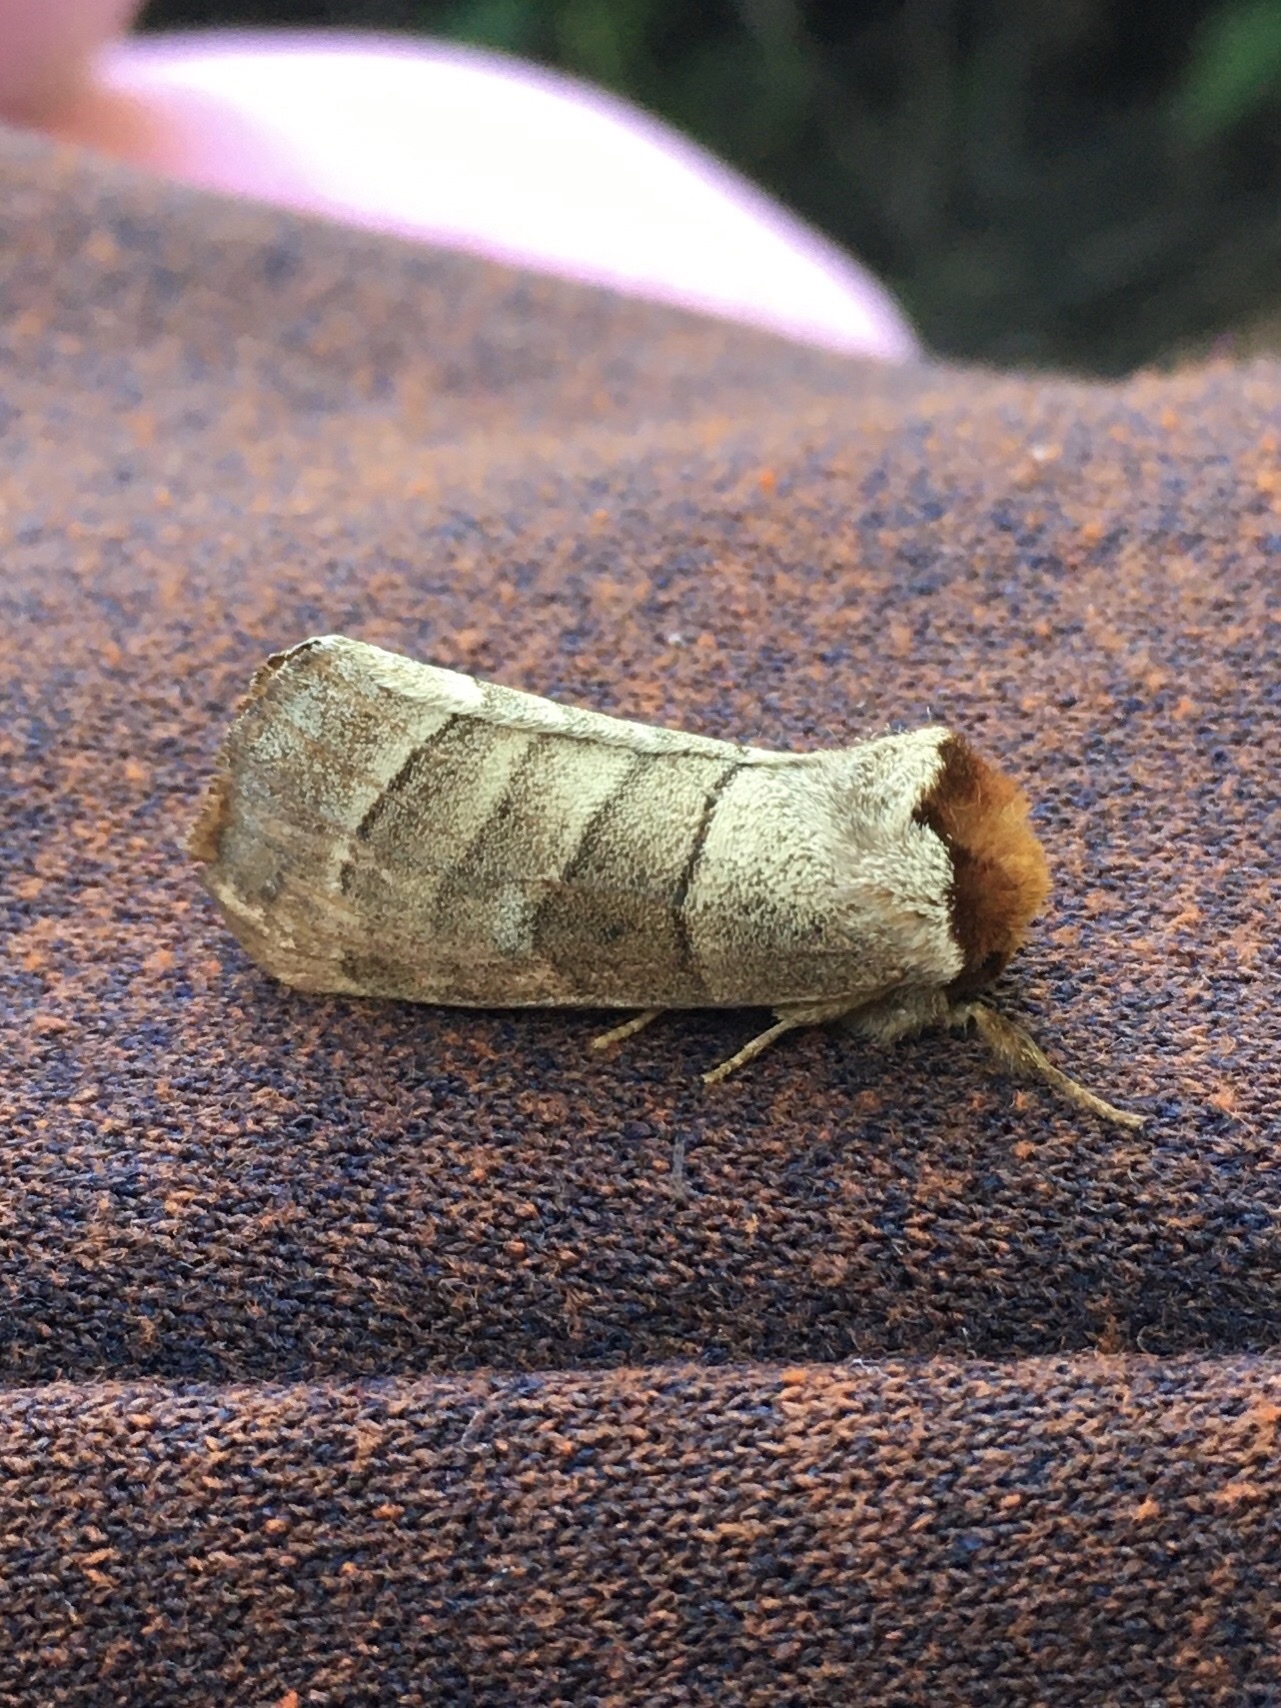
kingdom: Animalia
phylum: Arthropoda
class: Insecta
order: Lepidoptera
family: Notodontidae
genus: Datana
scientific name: Datana integerrima
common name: Walnut caterpillar
